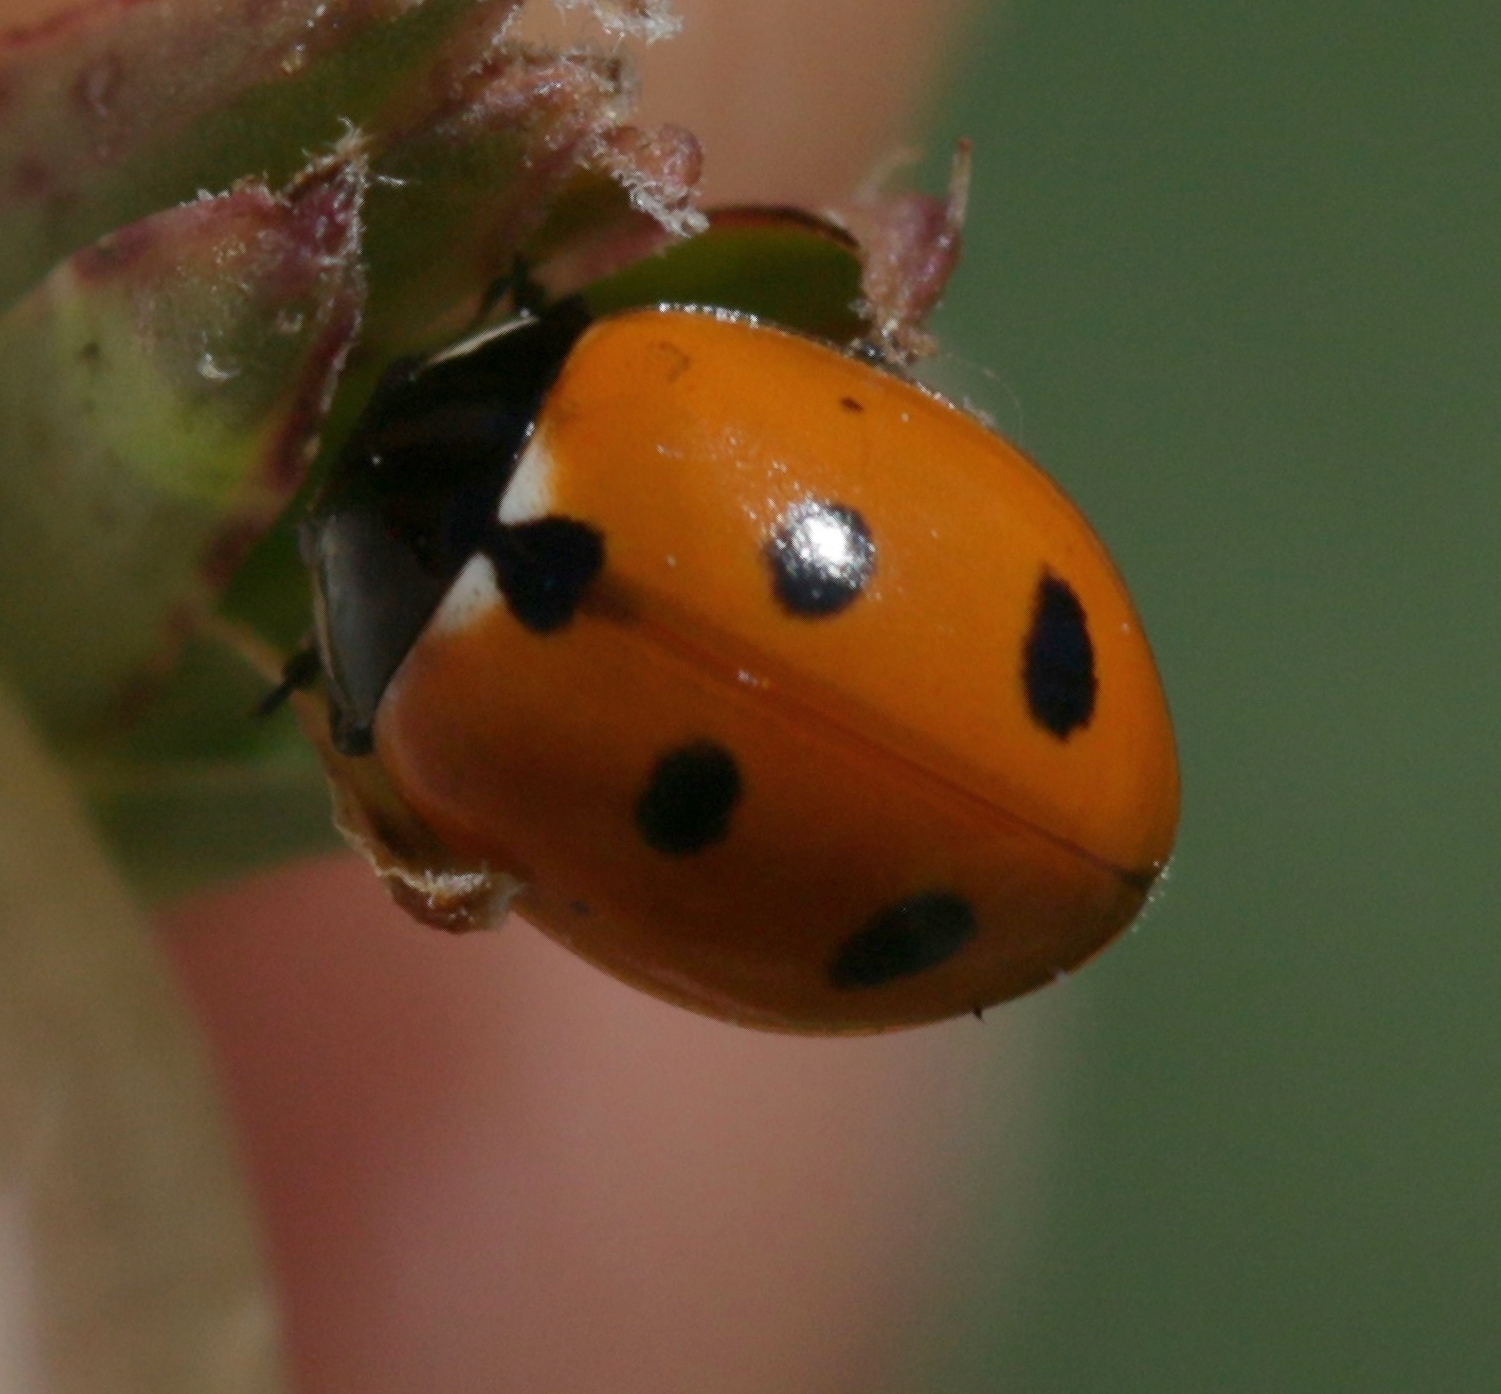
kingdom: Animalia
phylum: Arthropoda
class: Insecta
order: Coleoptera
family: Coccinellidae
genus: Coccinella
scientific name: Coccinella undecimpunctata
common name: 11-spot ladybird
